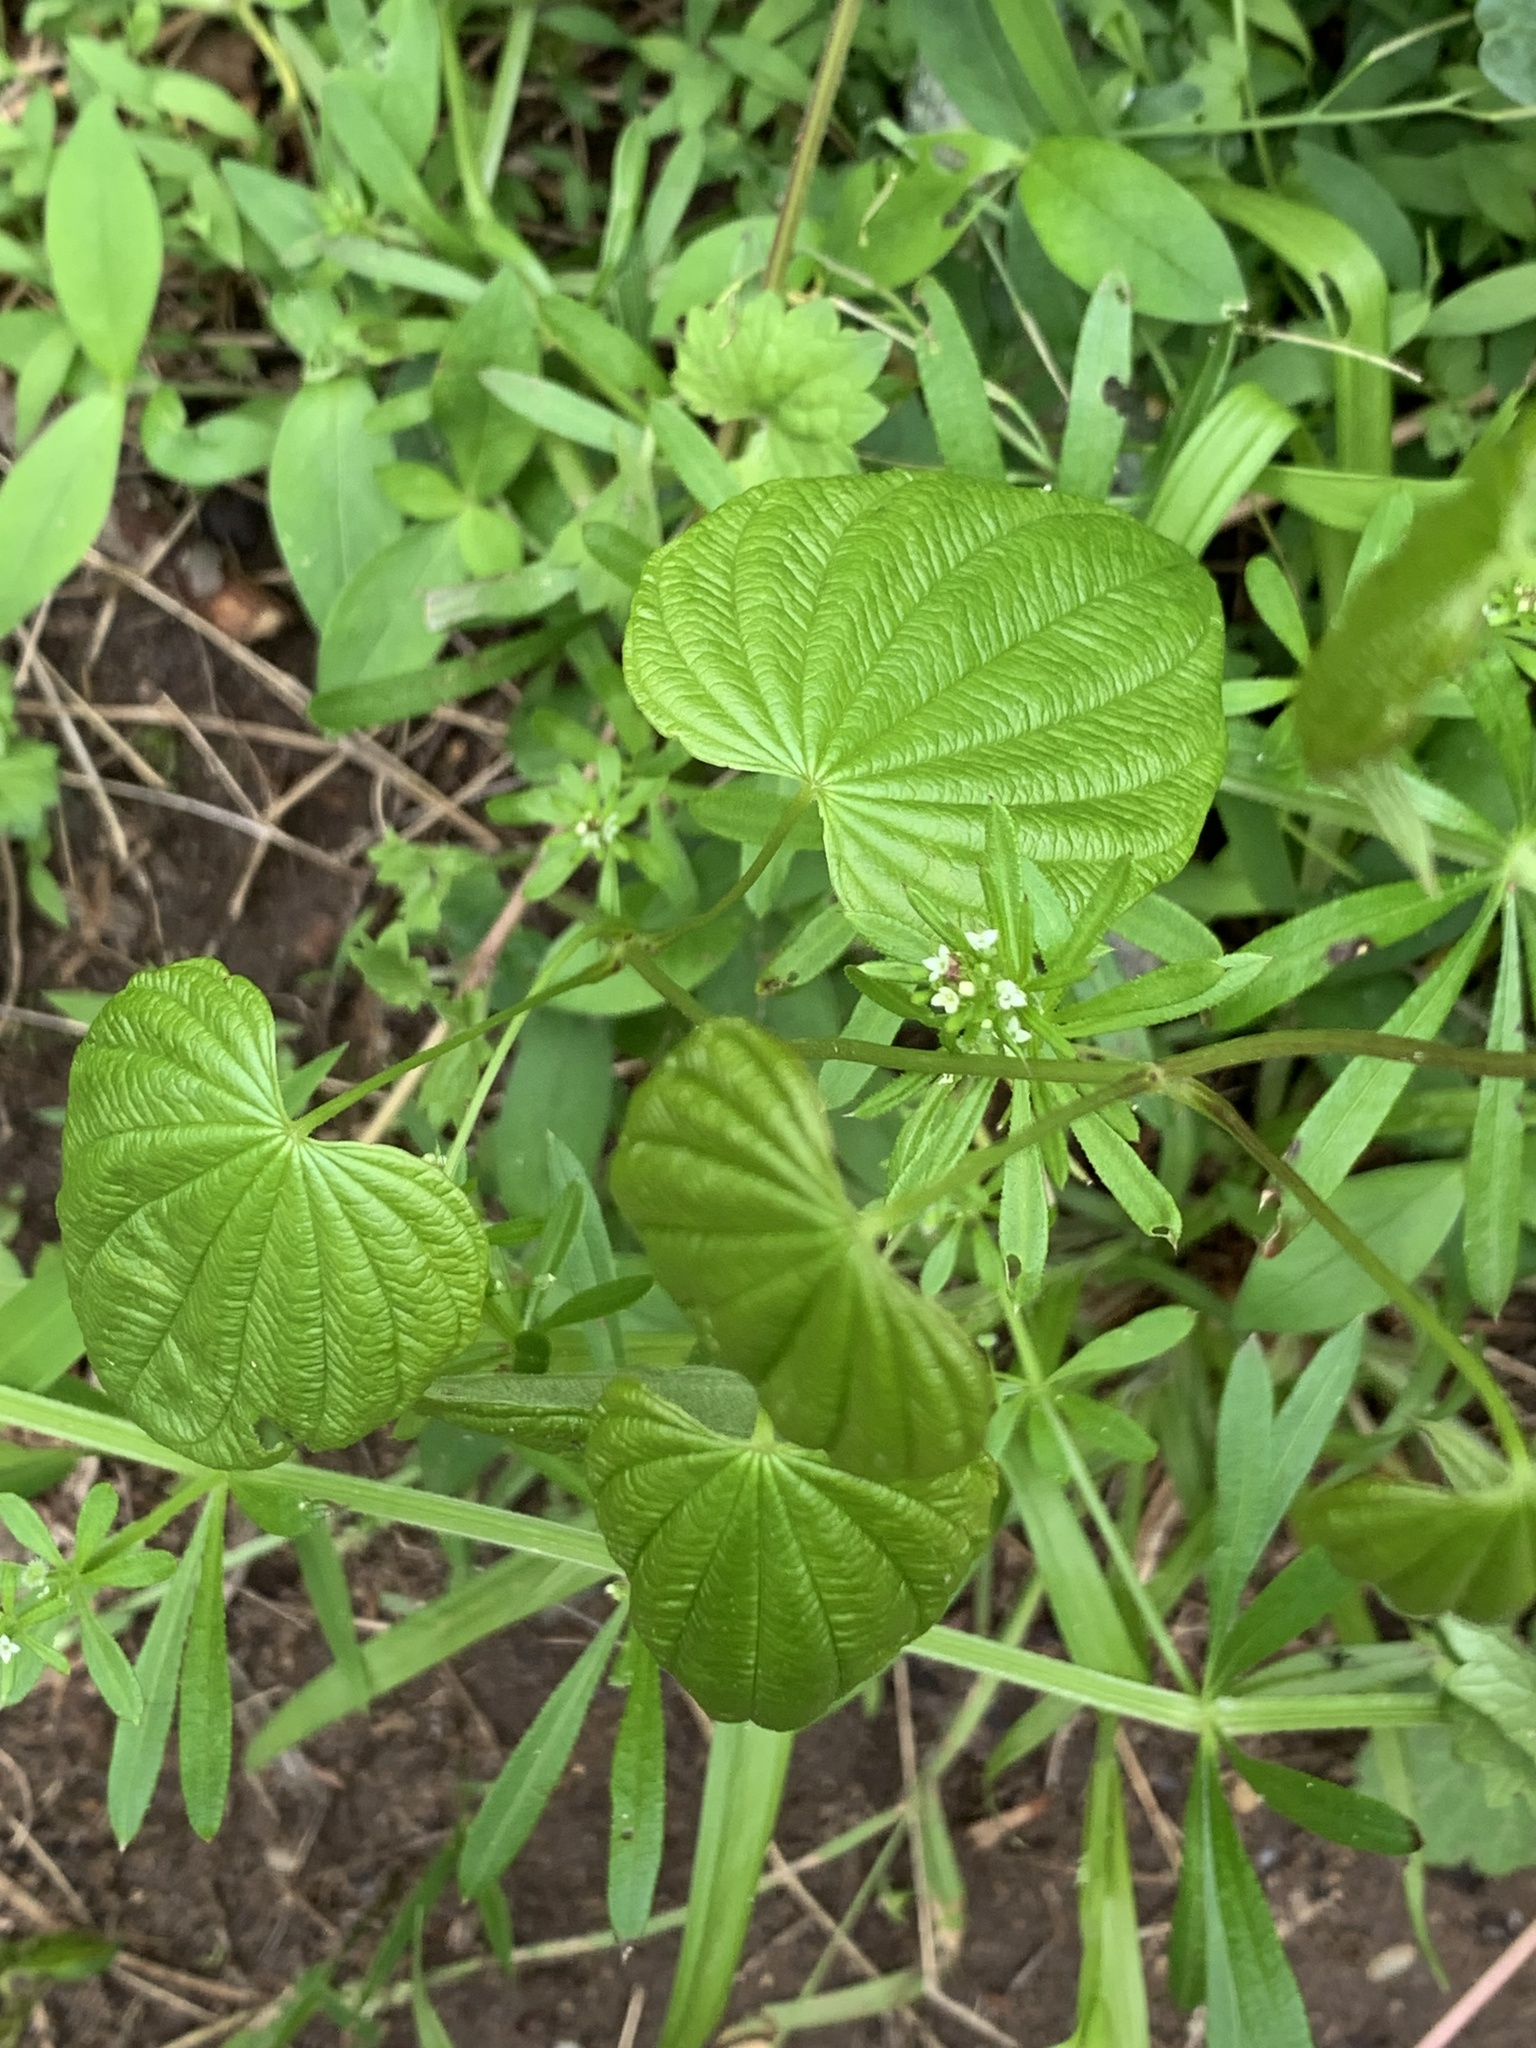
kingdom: Plantae
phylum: Tracheophyta
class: Liliopsida
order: Dioscoreales
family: Dioscoreaceae
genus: Dioscorea
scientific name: Dioscorea villosa
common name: Wild yam
